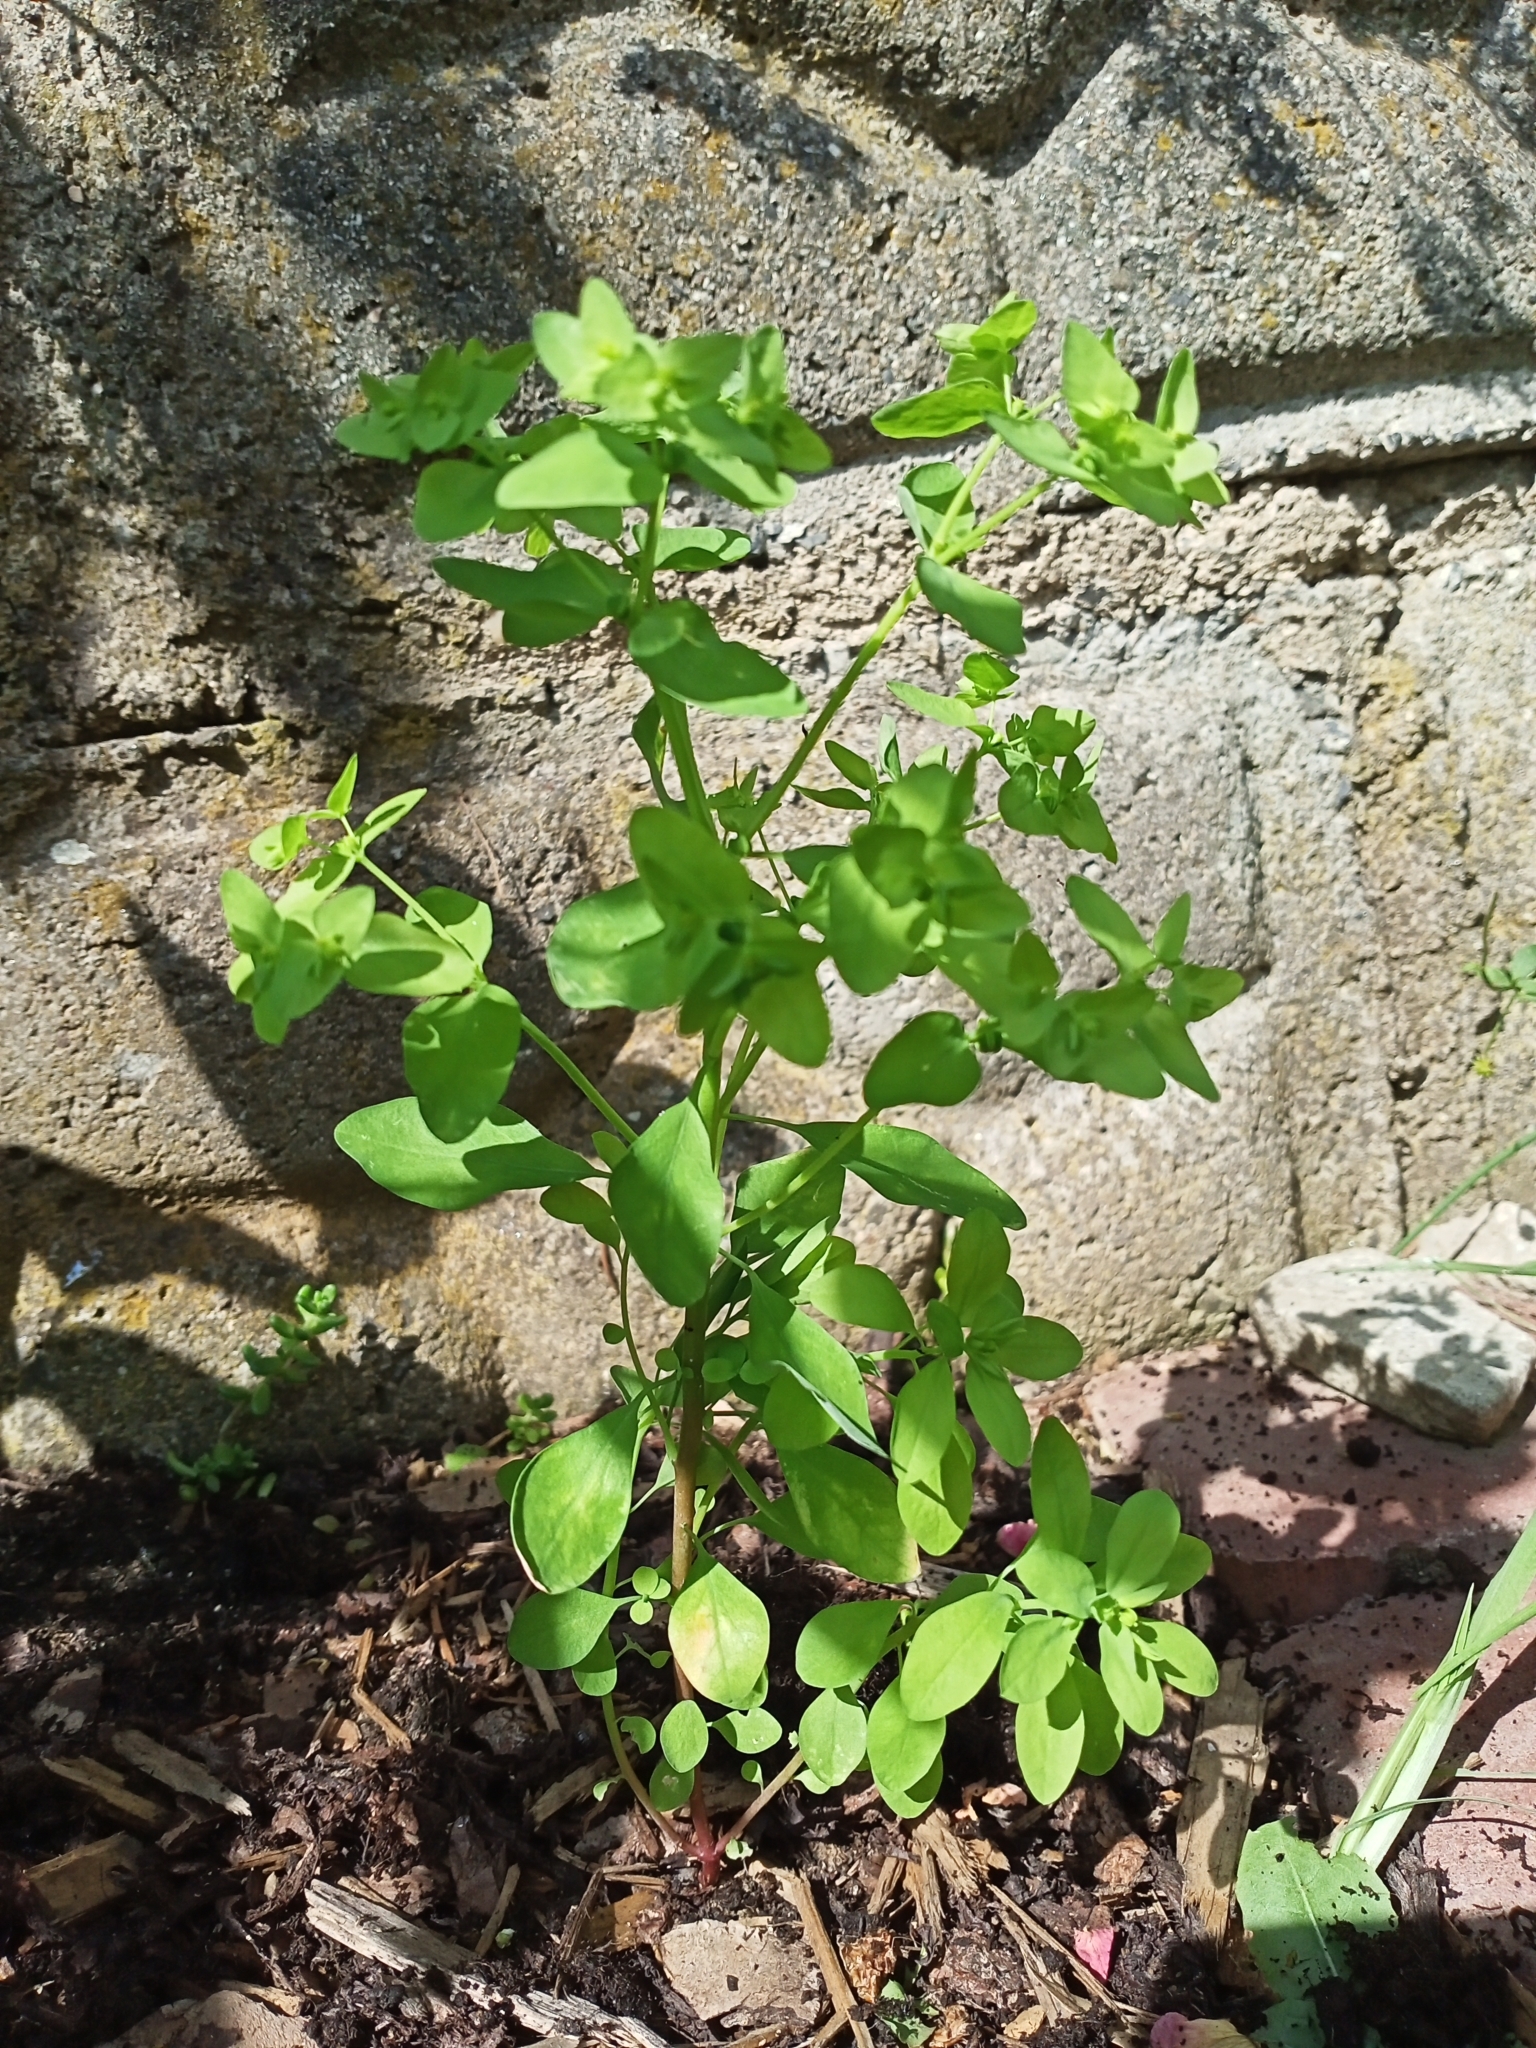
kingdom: Plantae
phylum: Tracheophyta
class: Magnoliopsida
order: Malpighiales
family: Euphorbiaceae
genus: Euphorbia
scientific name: Euphorbia peplus
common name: Petty spurge
